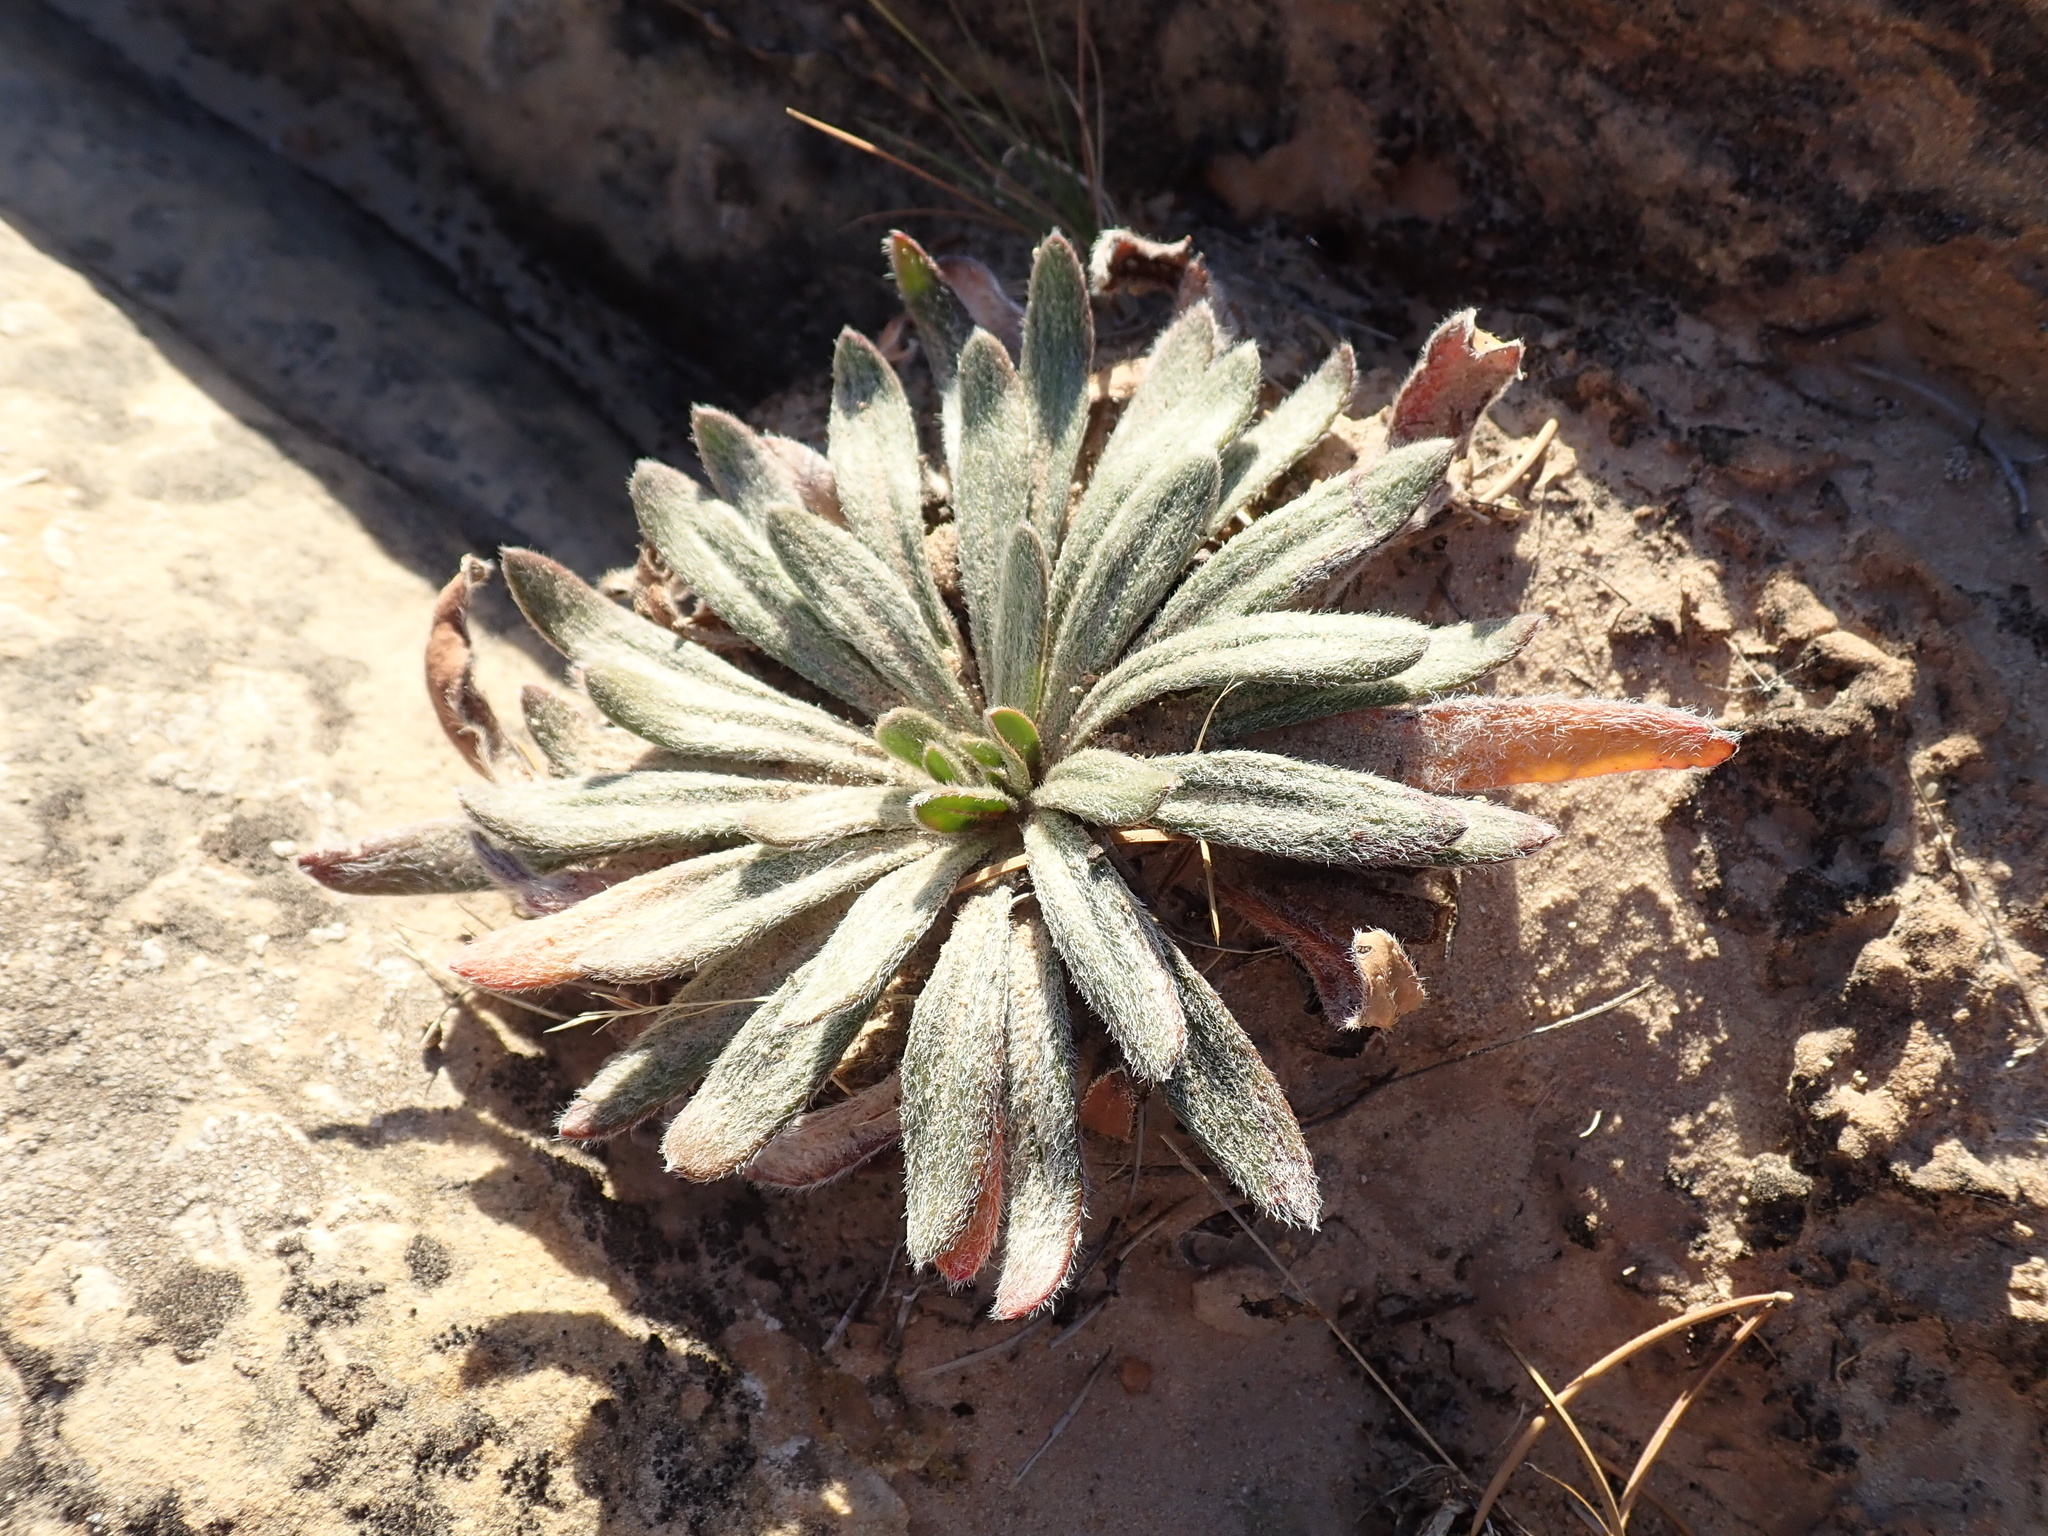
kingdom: Plantae
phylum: Tracheophyta
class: Magnoliopsida
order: Caryophyllales
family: Polygonaceae
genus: Eriogonum
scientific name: Eriogonum alatum
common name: Winged eriogonum
